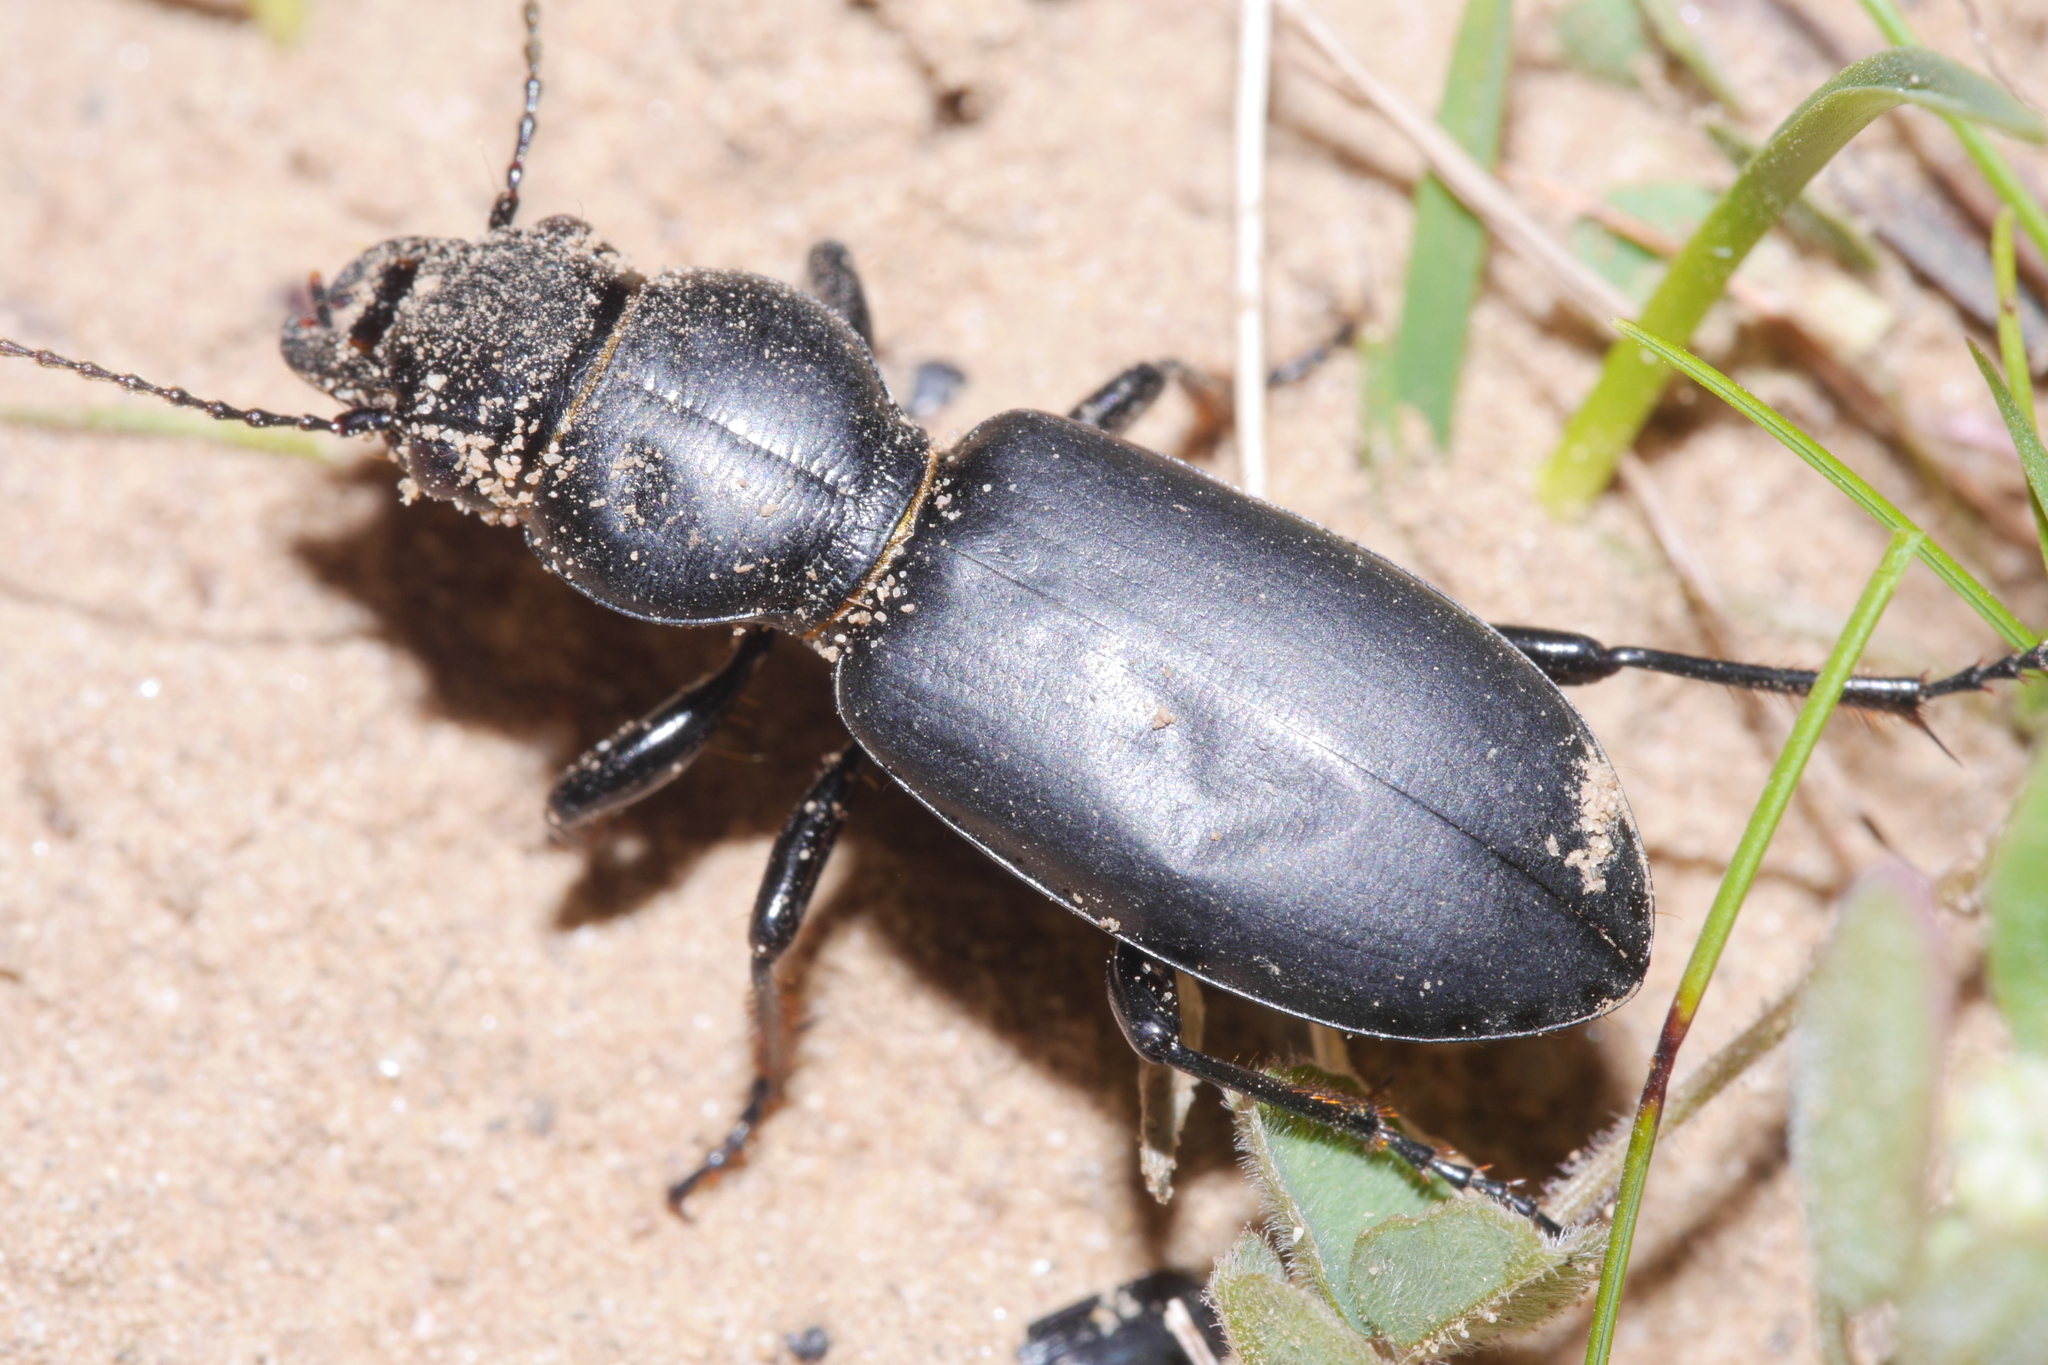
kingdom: Animalia
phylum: Arthropoda
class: Insecta
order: Coleoptera
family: Carabidae
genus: Broscus
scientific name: Broscus cephalotes
